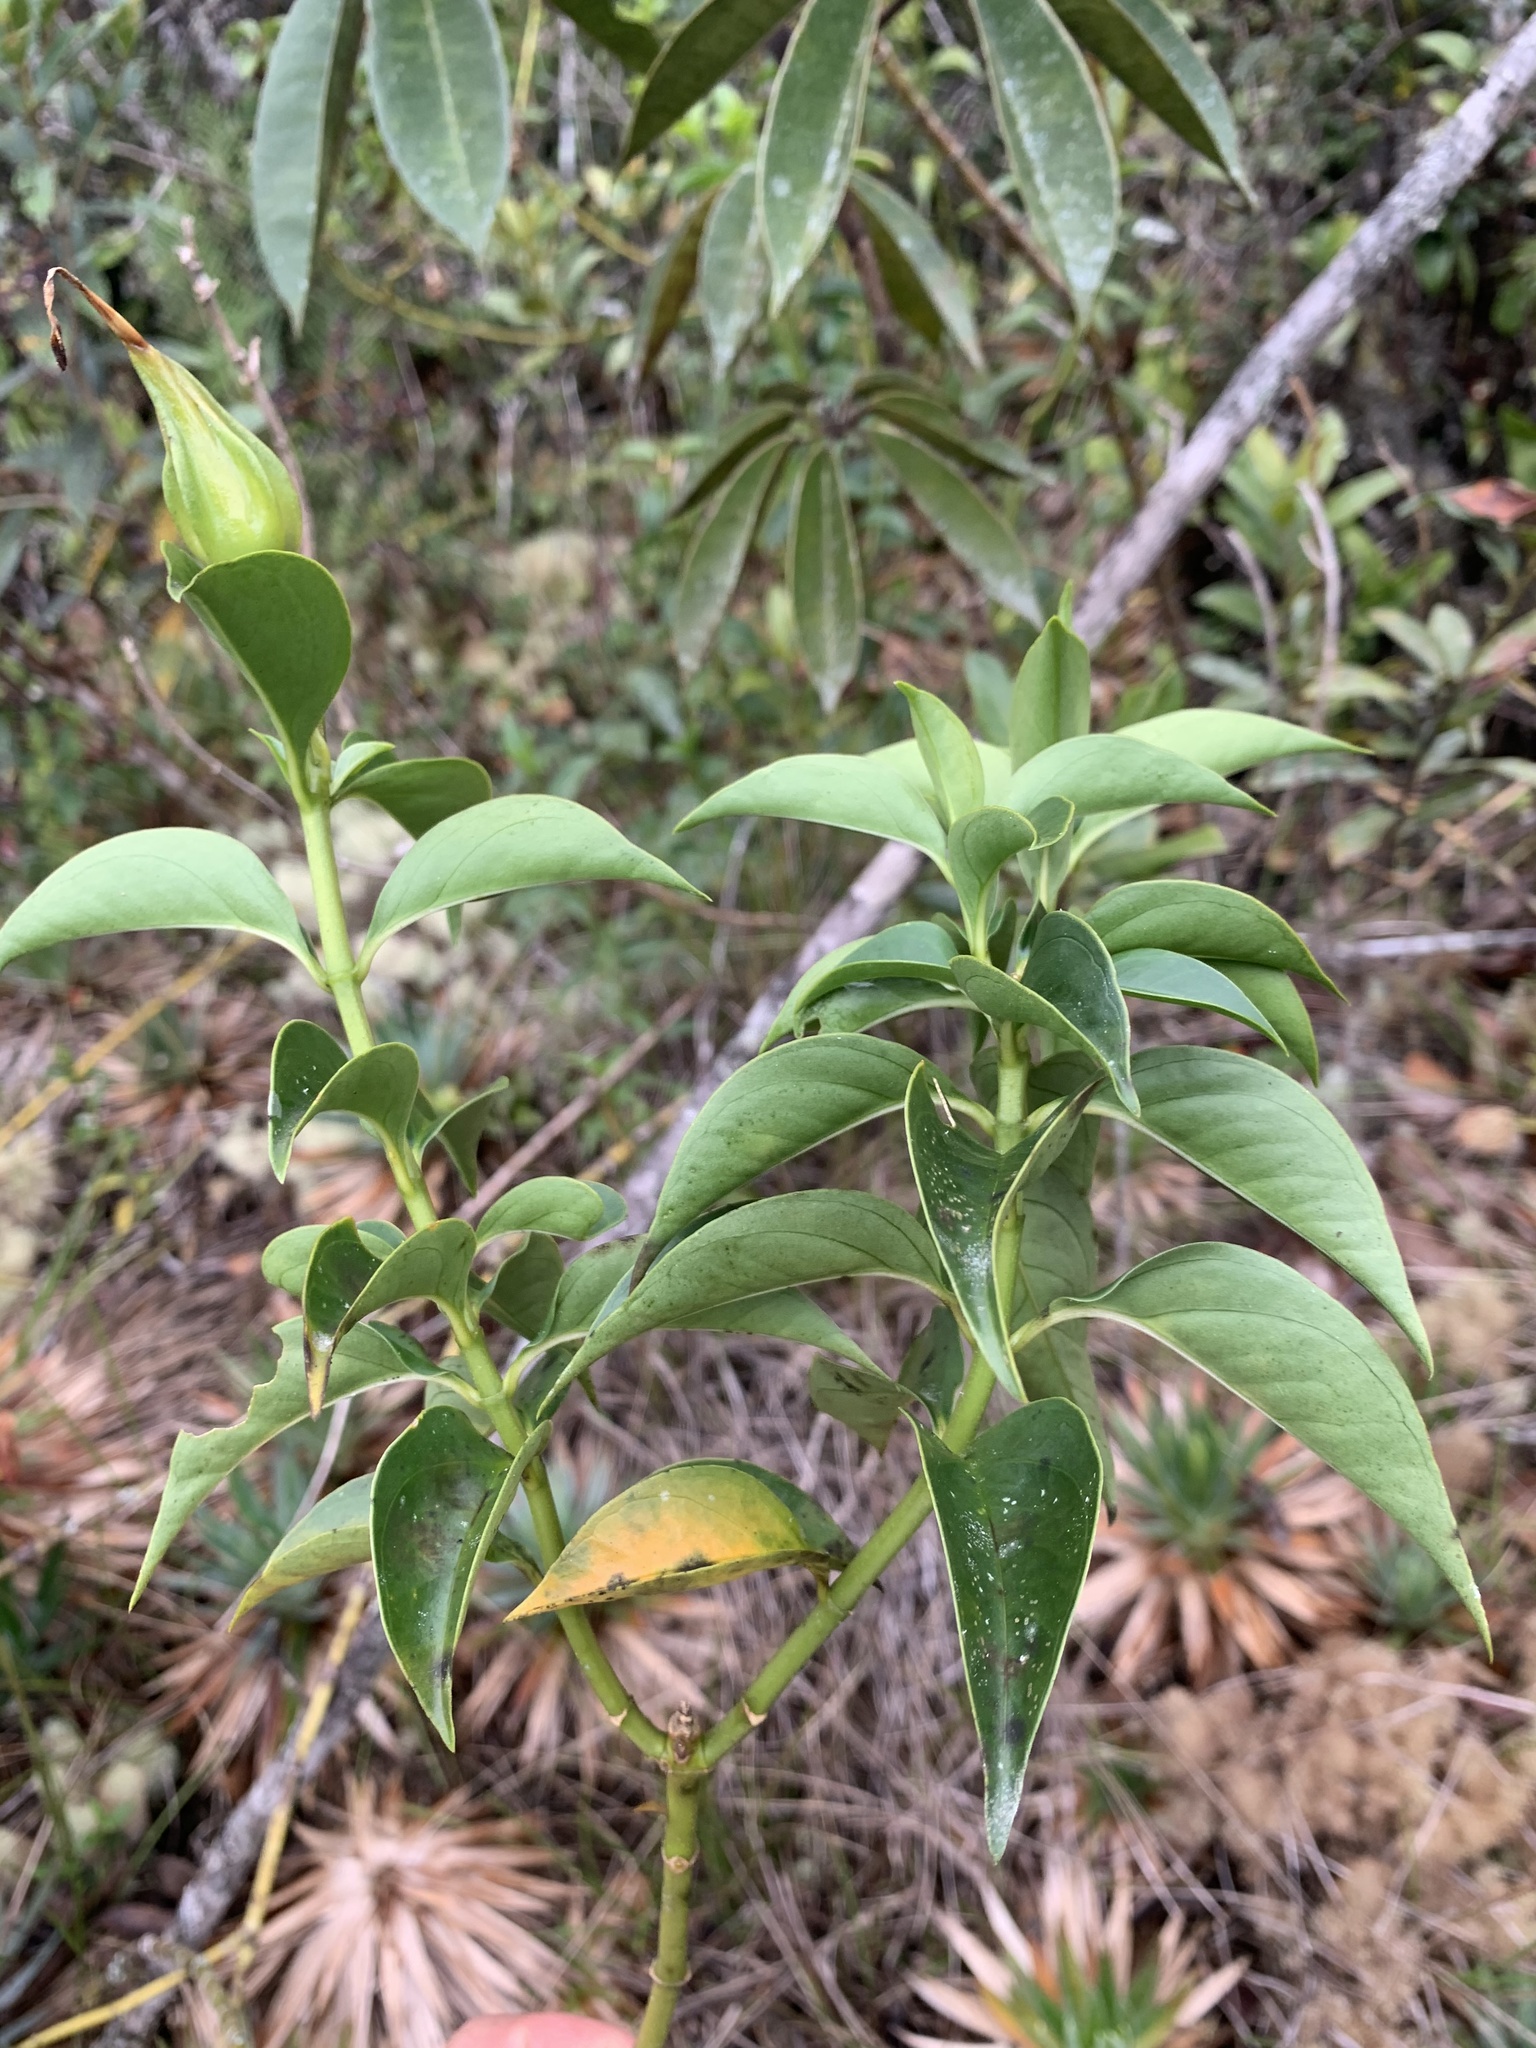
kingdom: Plantae
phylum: Tracheophyta
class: Magnoliopsida
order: Gentianales
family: Gentianaceae
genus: Symbolanthus
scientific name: Symbolanthus calygonus
